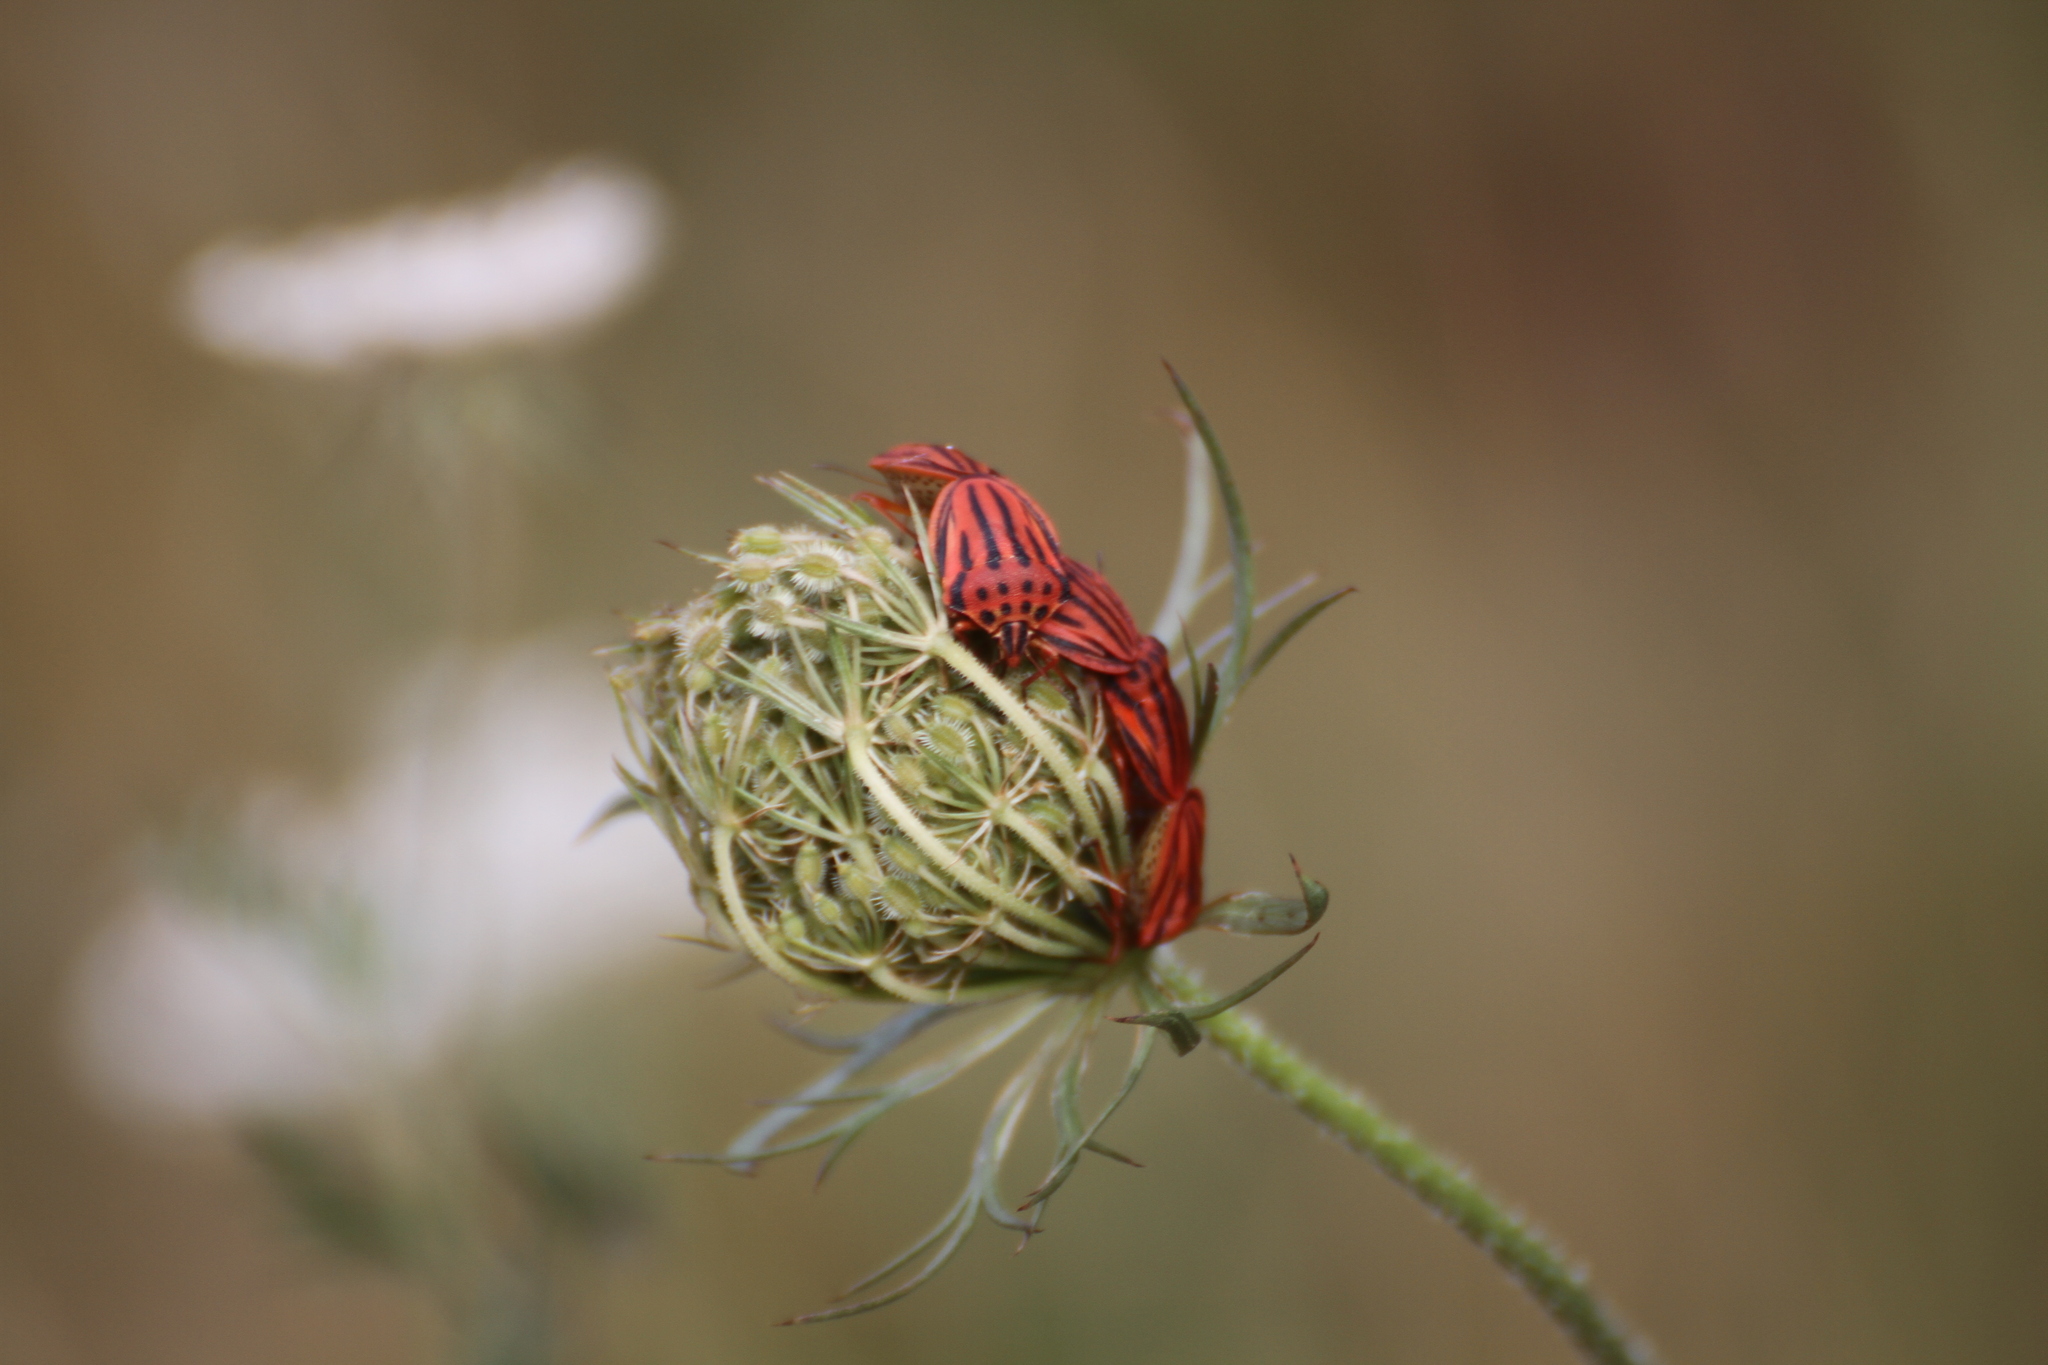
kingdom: Animalia
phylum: Arthropoda
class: Insecta
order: Hemiptera
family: Pentatomidae
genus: Graphosoma
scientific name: Graphosoma semipunctatum
